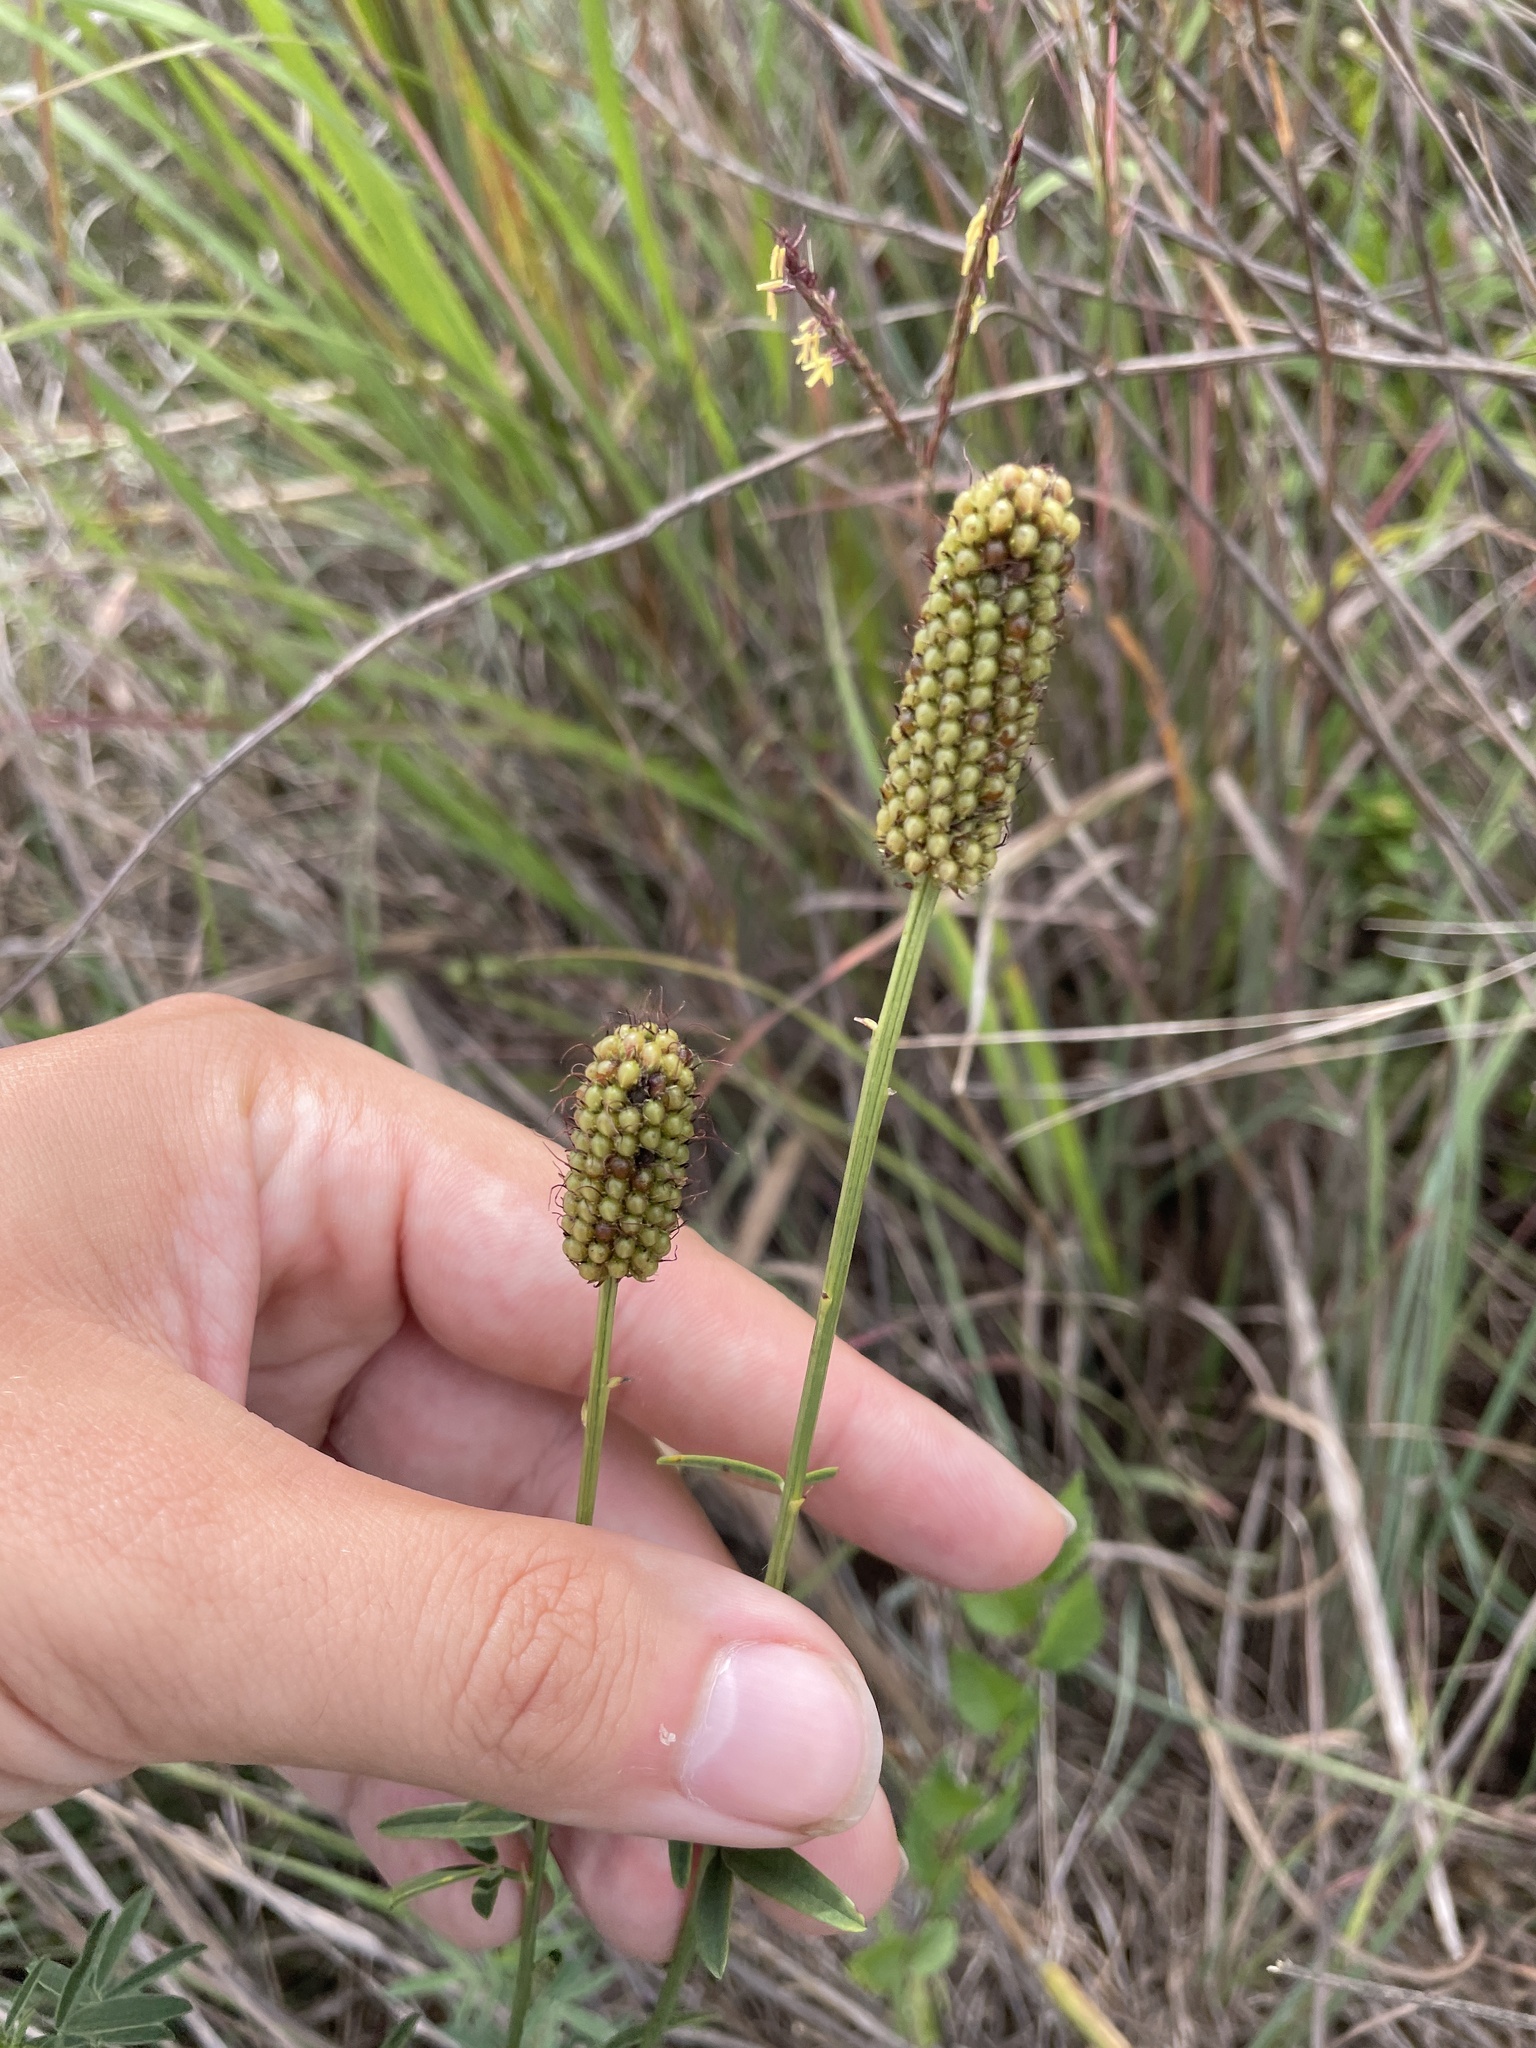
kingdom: Plantae
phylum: Tracheophyta
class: Magnoliopsida
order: Fabales
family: Fabaceae
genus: Dalea
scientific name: Dalea candida
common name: White prairie-clover
